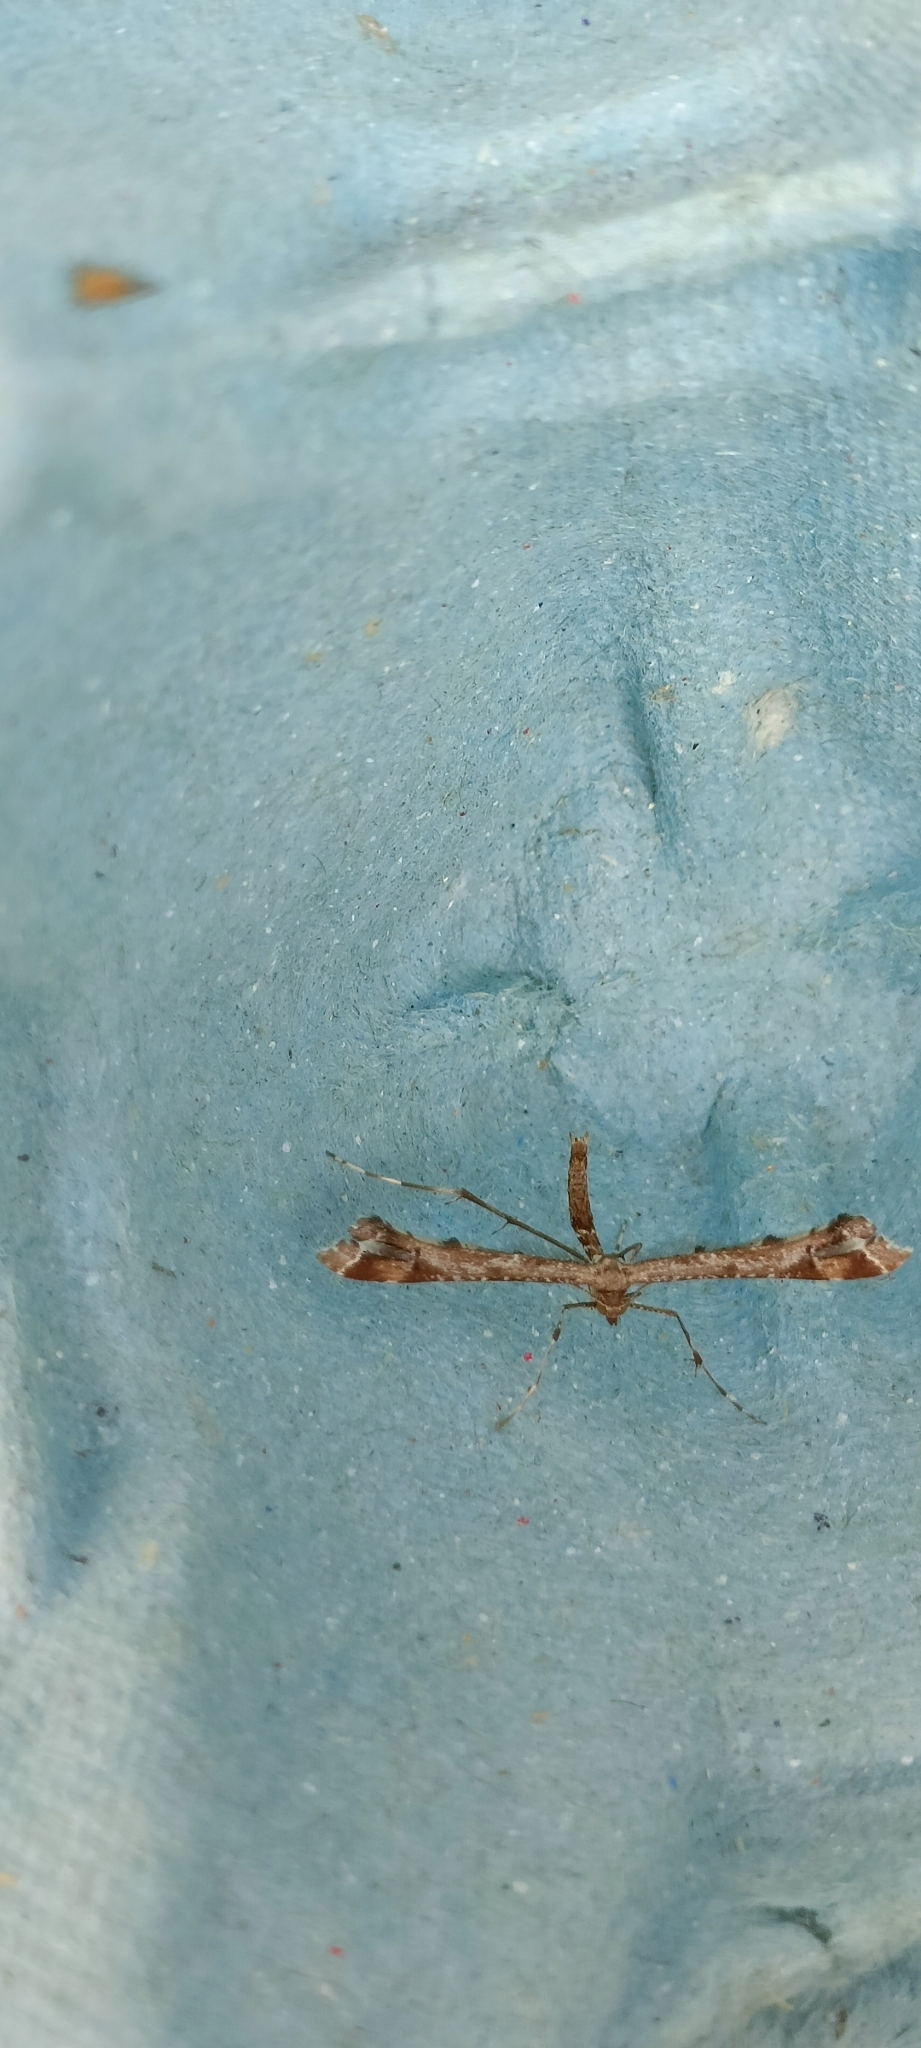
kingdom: Animalia
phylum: Arthropoda
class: Insecta
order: Lepidoptera
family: Pterophoridae
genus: Amblyptilia
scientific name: Amblyptilia acanthadactyla
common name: Beautiful plume
